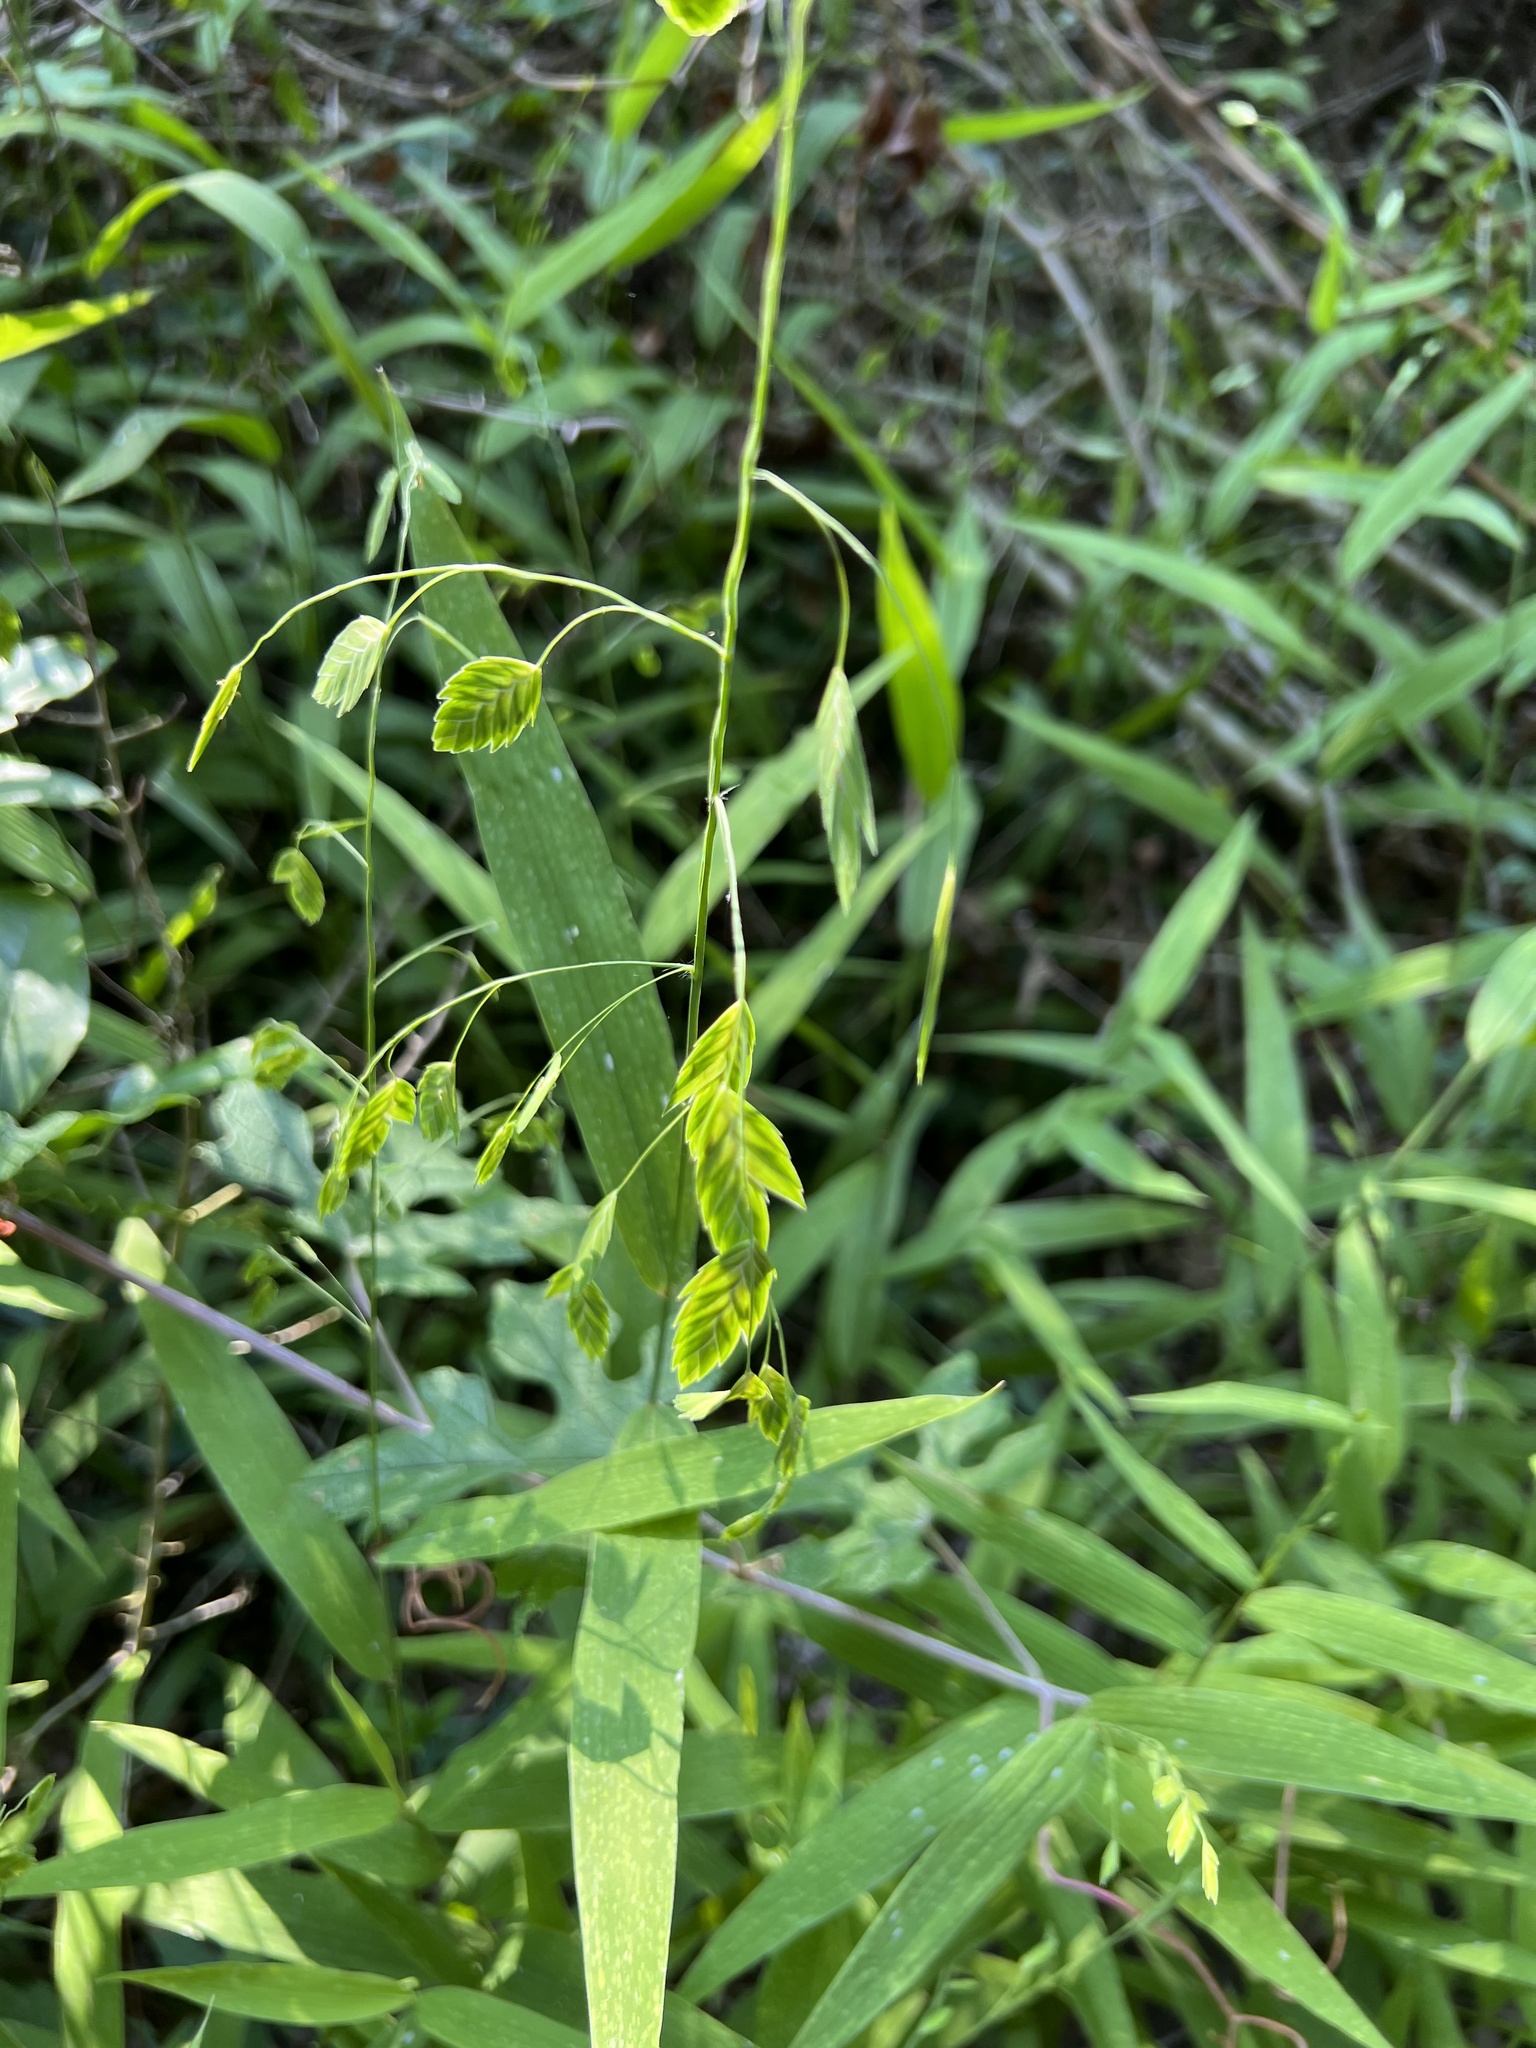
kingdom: Plantae
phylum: Tracheophyta
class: Liliopsida
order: Poales
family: Poaceae
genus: Chasmanthium
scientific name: Chasmanthium latifolium
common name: Broad-leaved chasmanthium
